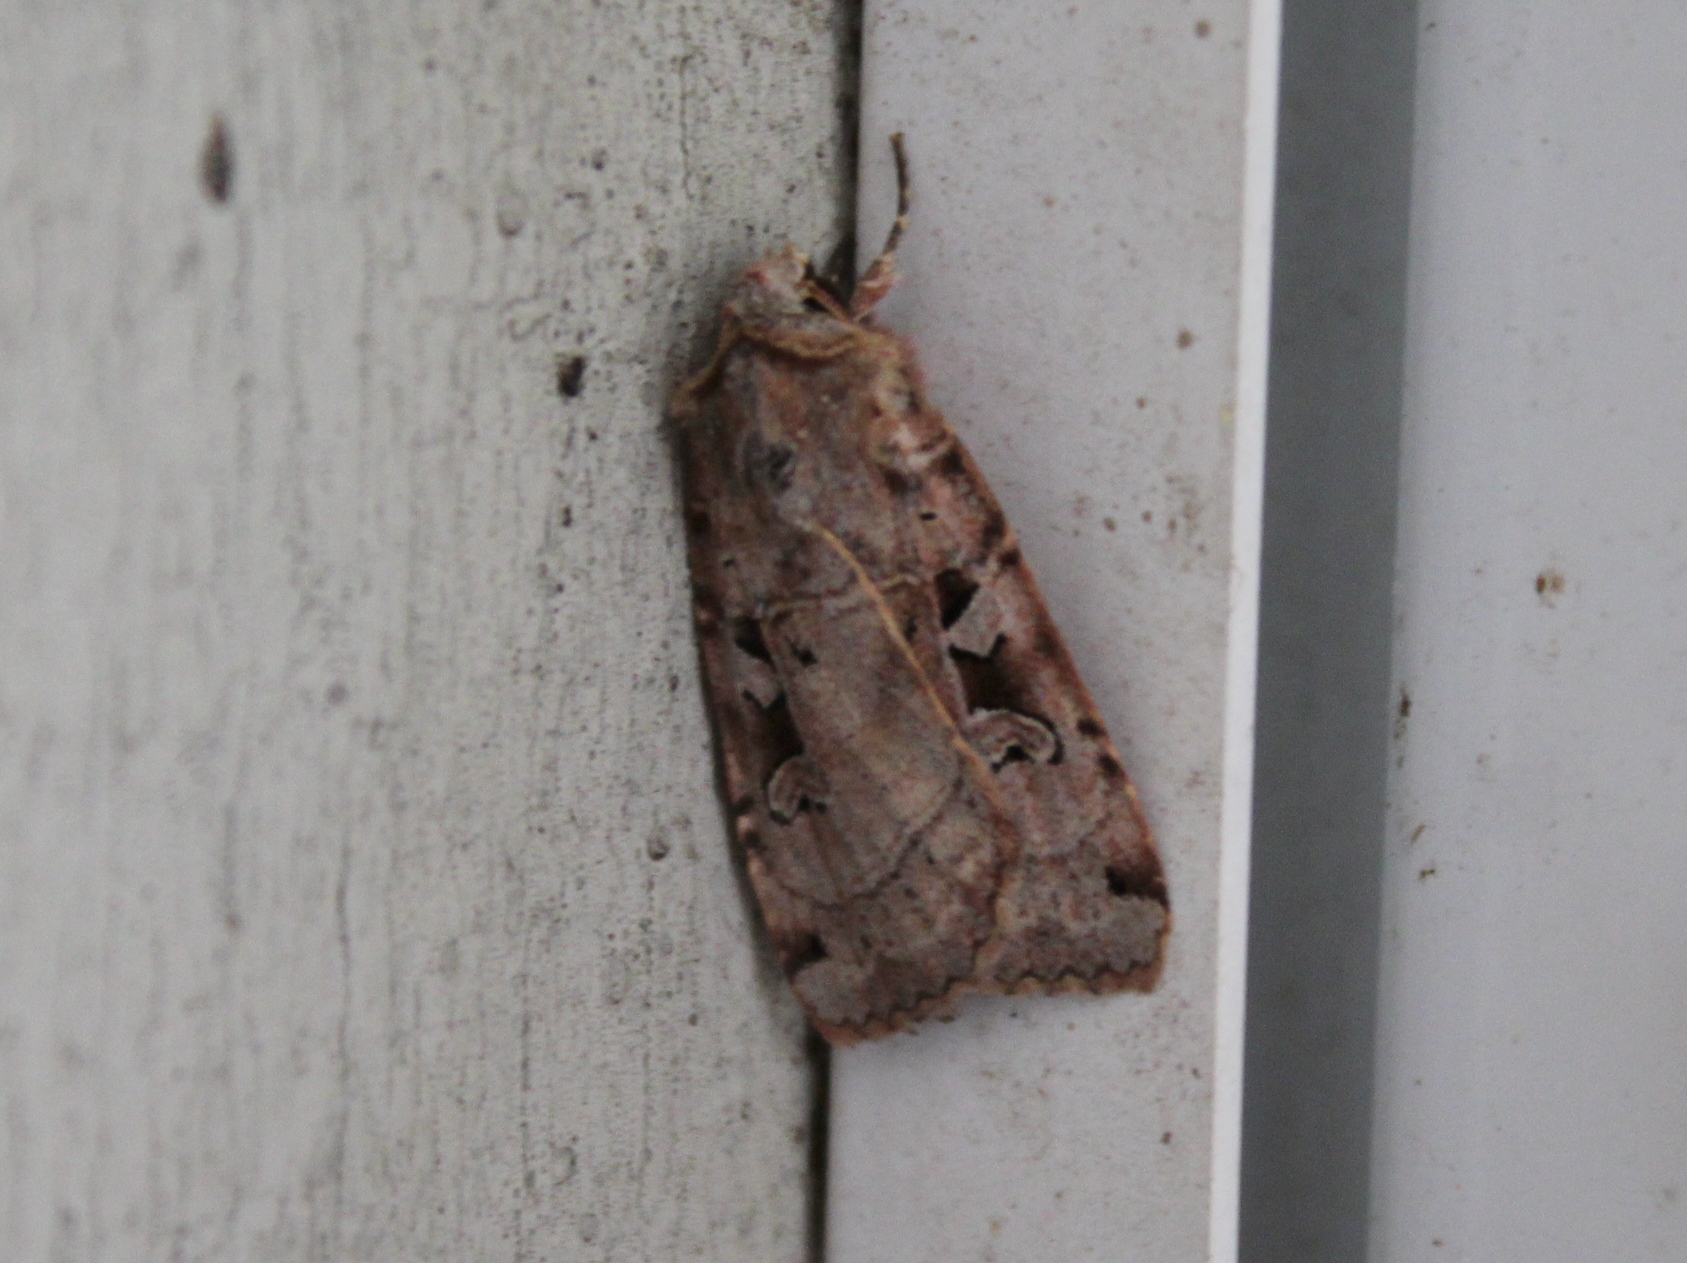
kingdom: Animalia
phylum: Arthropoda
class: Insecta
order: Lepidoptera
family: Noctuidae
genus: Xestia
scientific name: Xestia normaniana
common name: Norman's dart moth
